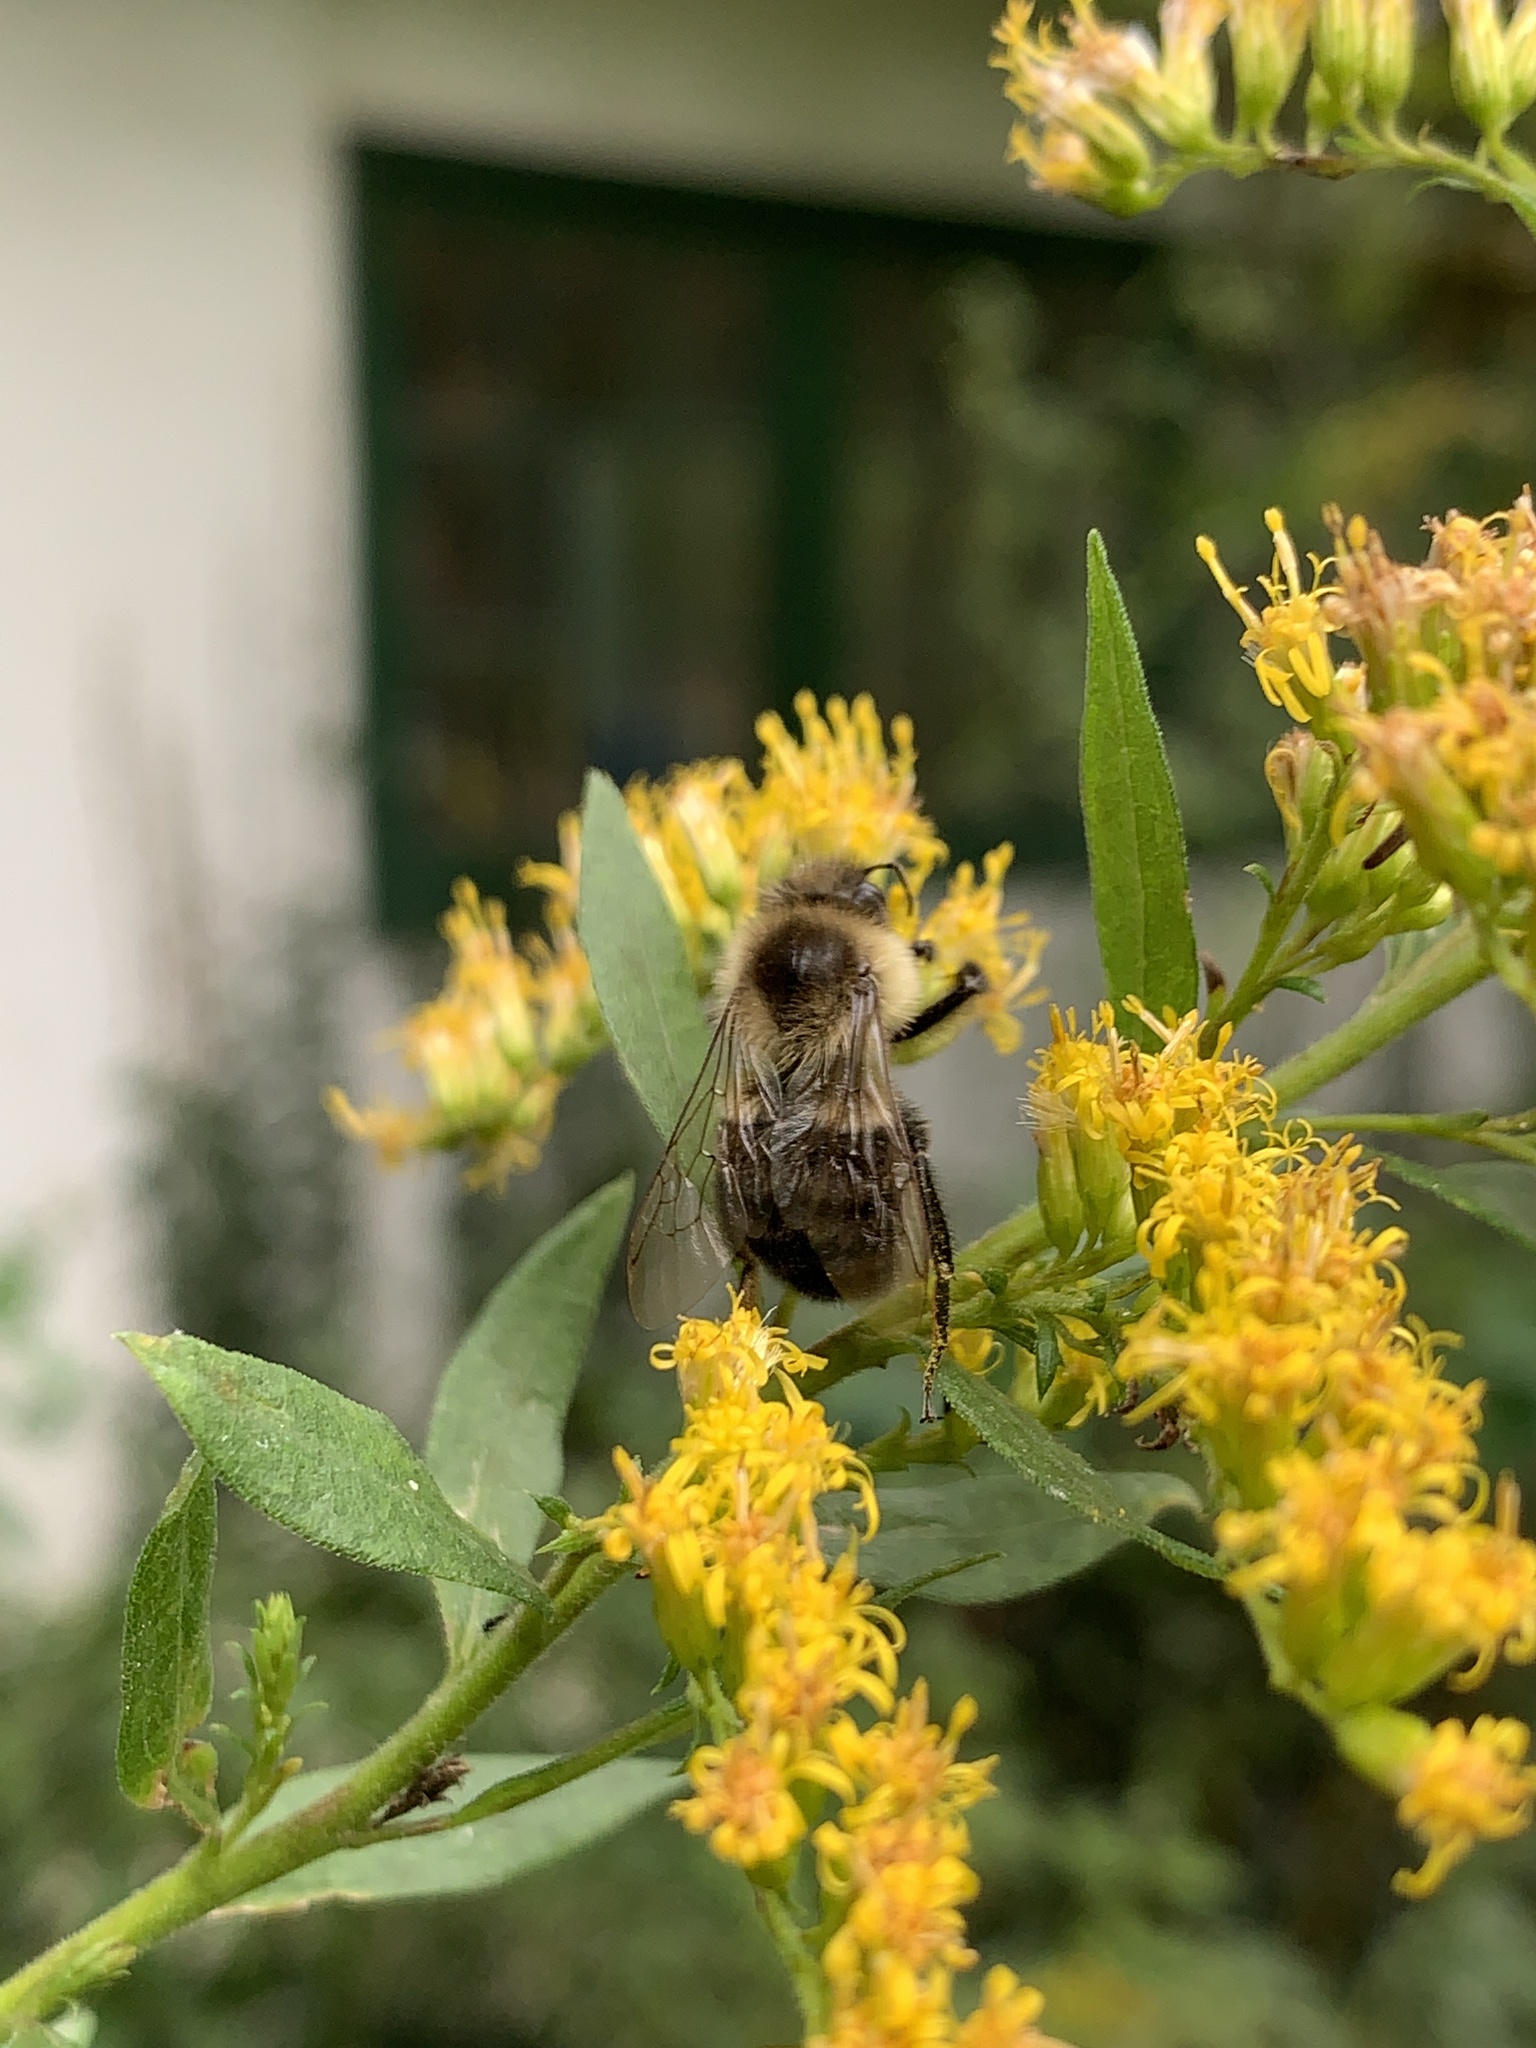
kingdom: Animalia
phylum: Arthropoda
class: Insecta
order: Hymenoptera
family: Apidae
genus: Bombus
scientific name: Bombus impatiens
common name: Common eastern bumble bee
